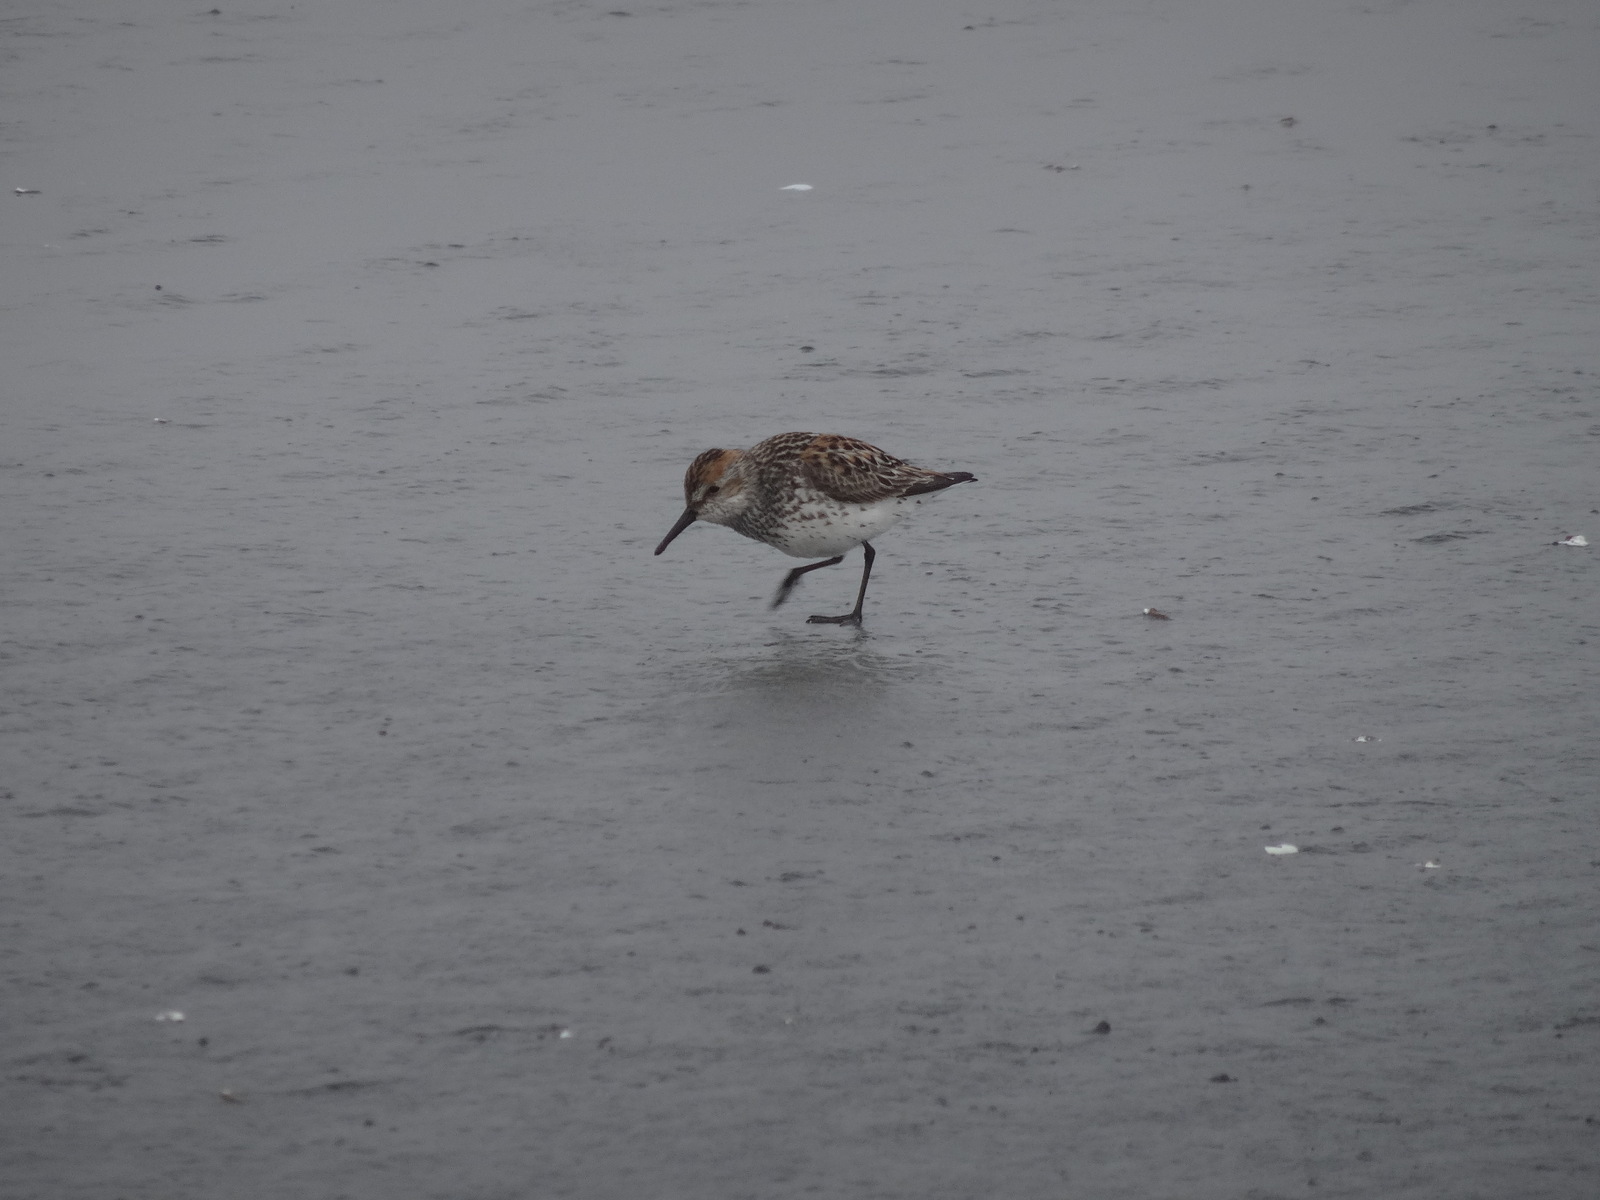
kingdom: Animalia
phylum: Chordata
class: Aves
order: Charadriiformes
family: Scolopacidae
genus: Calidris
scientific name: Calidris mauri
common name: Western sandpiper
